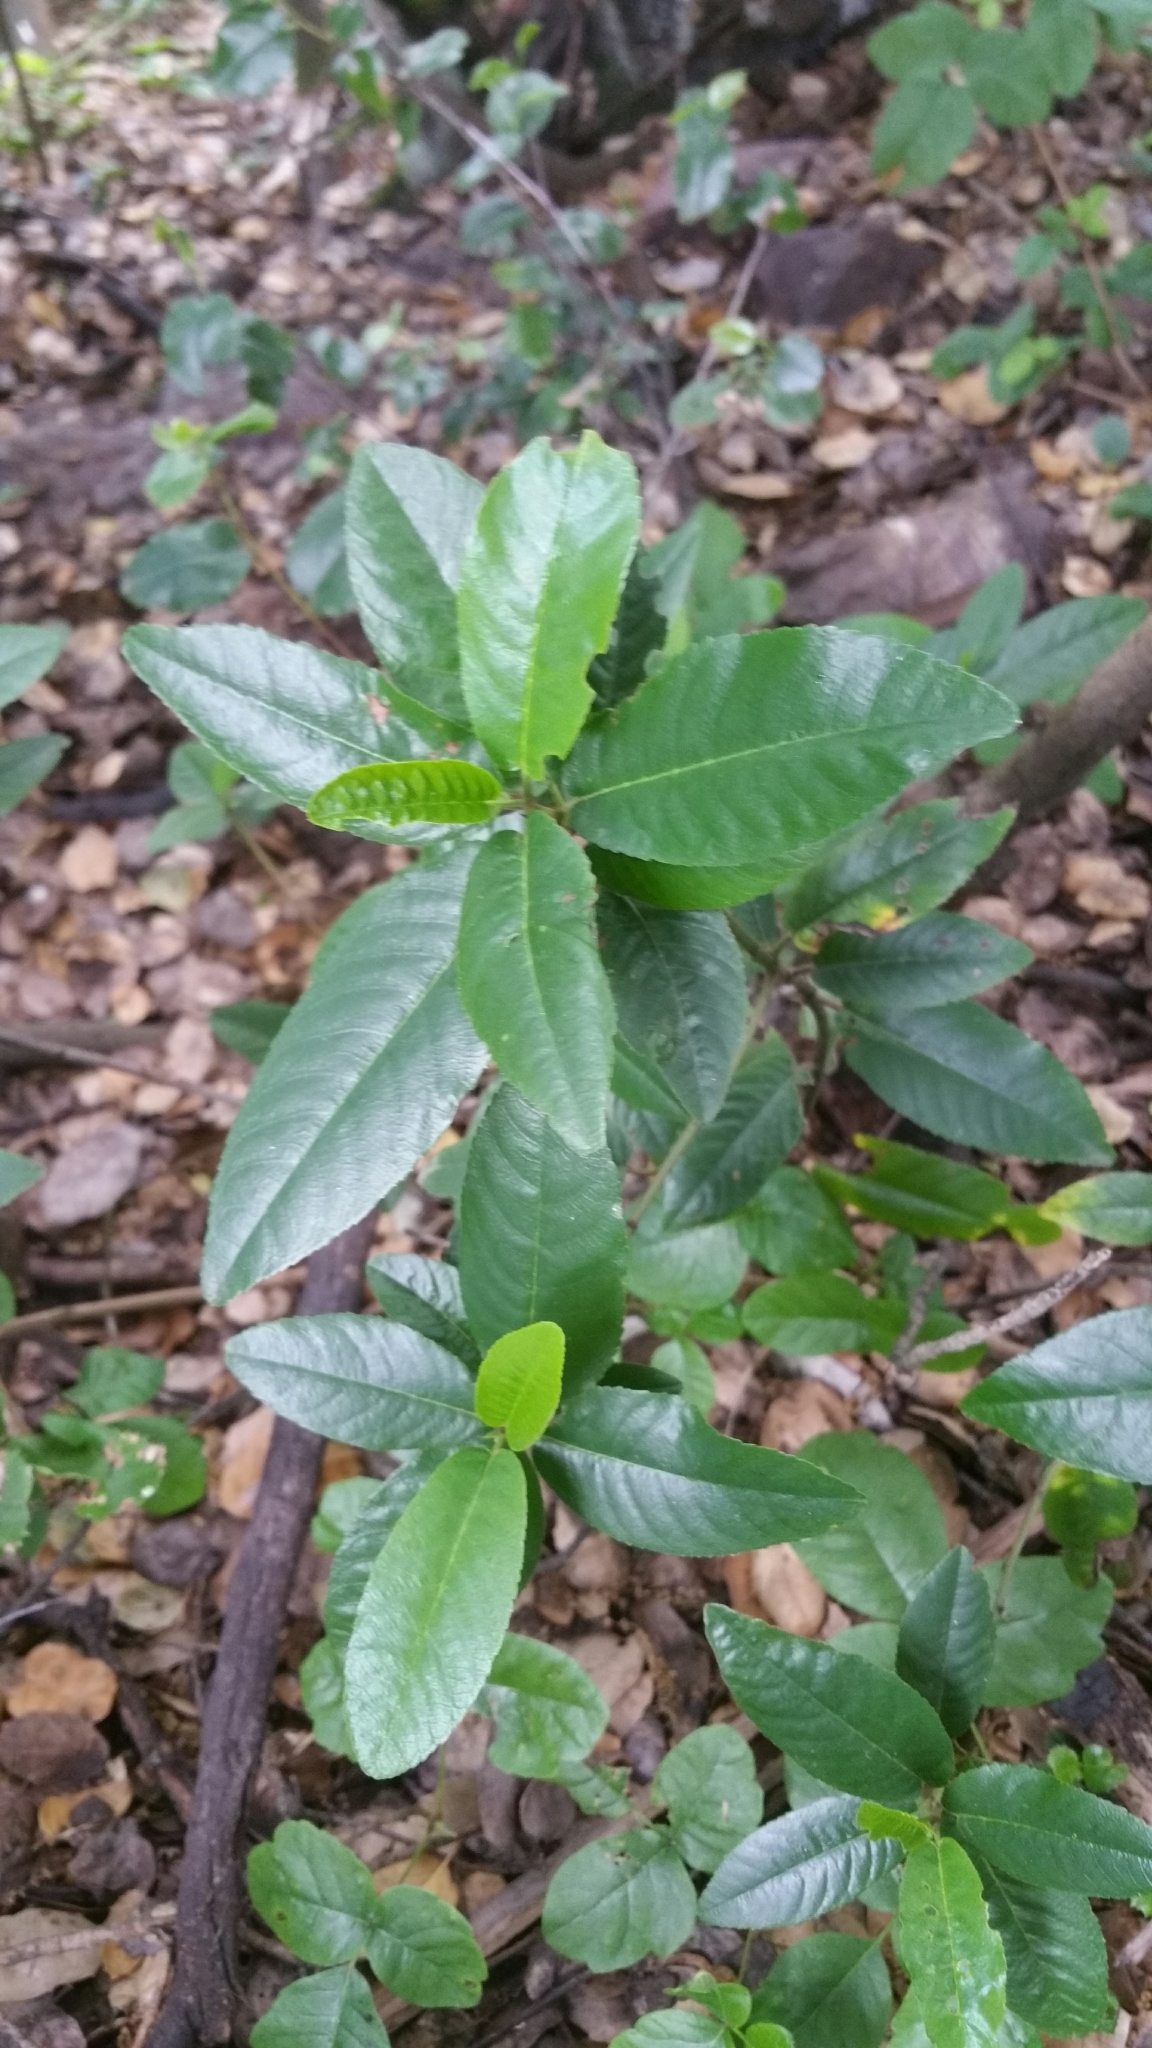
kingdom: Plantae
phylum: Tracheophyta
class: Magnoliopsida
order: Rosales
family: Rhamnaceae
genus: Frangula
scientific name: Frangula californica
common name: California buckthorn
